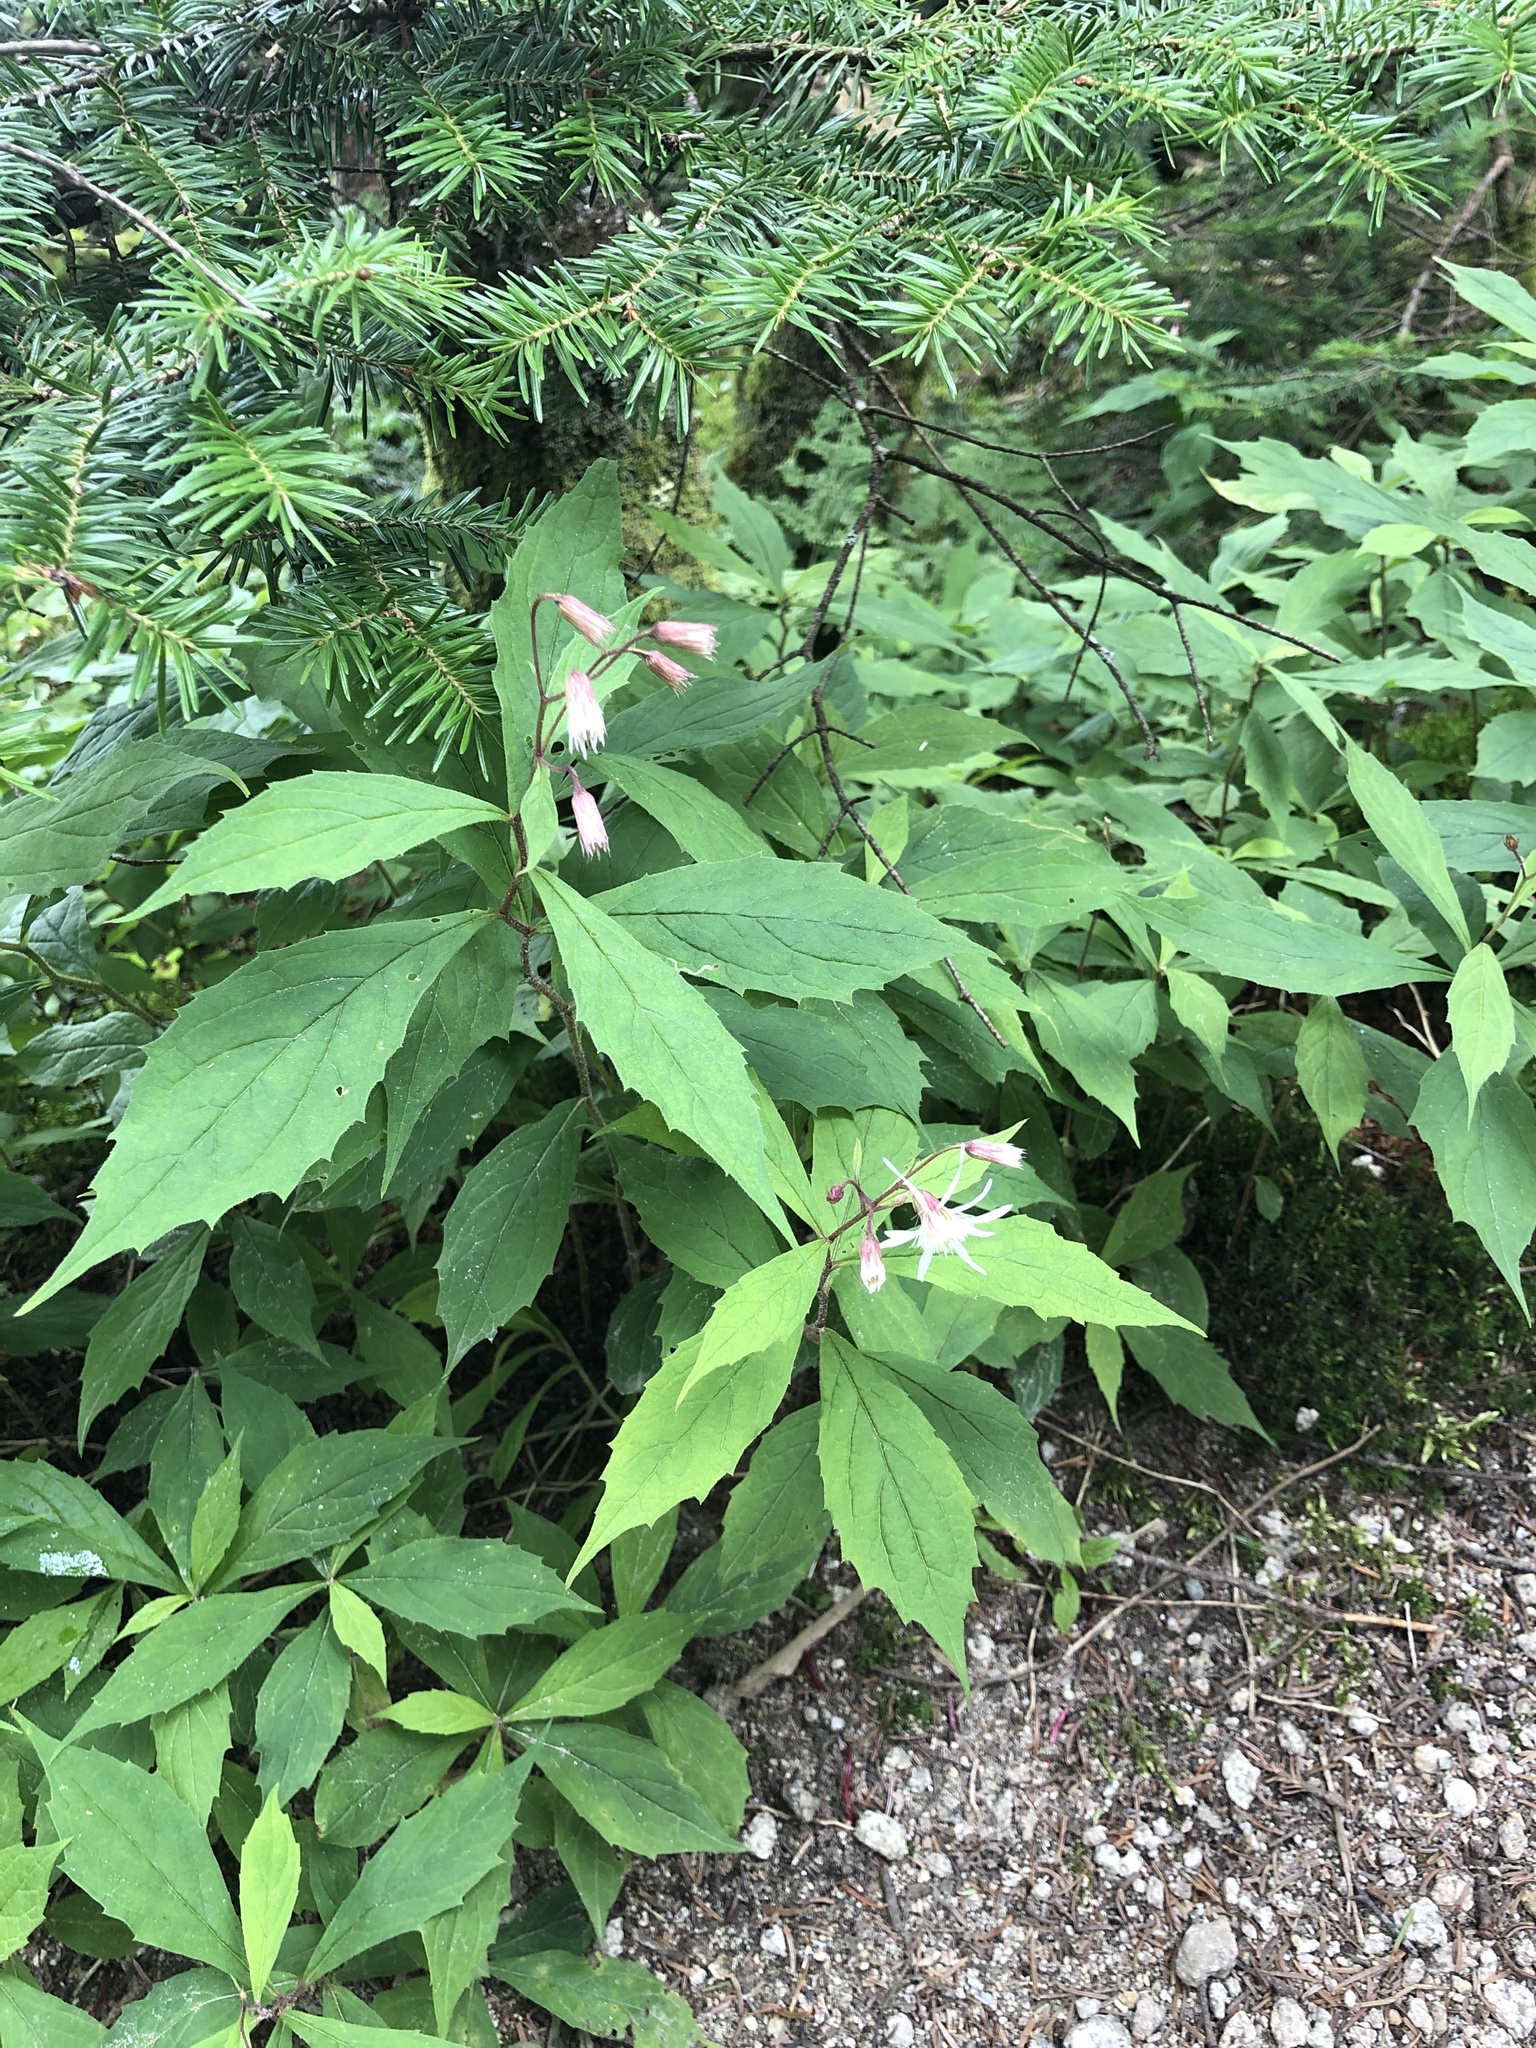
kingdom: Plantae
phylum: Tracheophyta
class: Magnoliopsida
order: Asterales
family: Asteraceae
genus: Oclemena
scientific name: Oclemena acuminata
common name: Mountain aster
